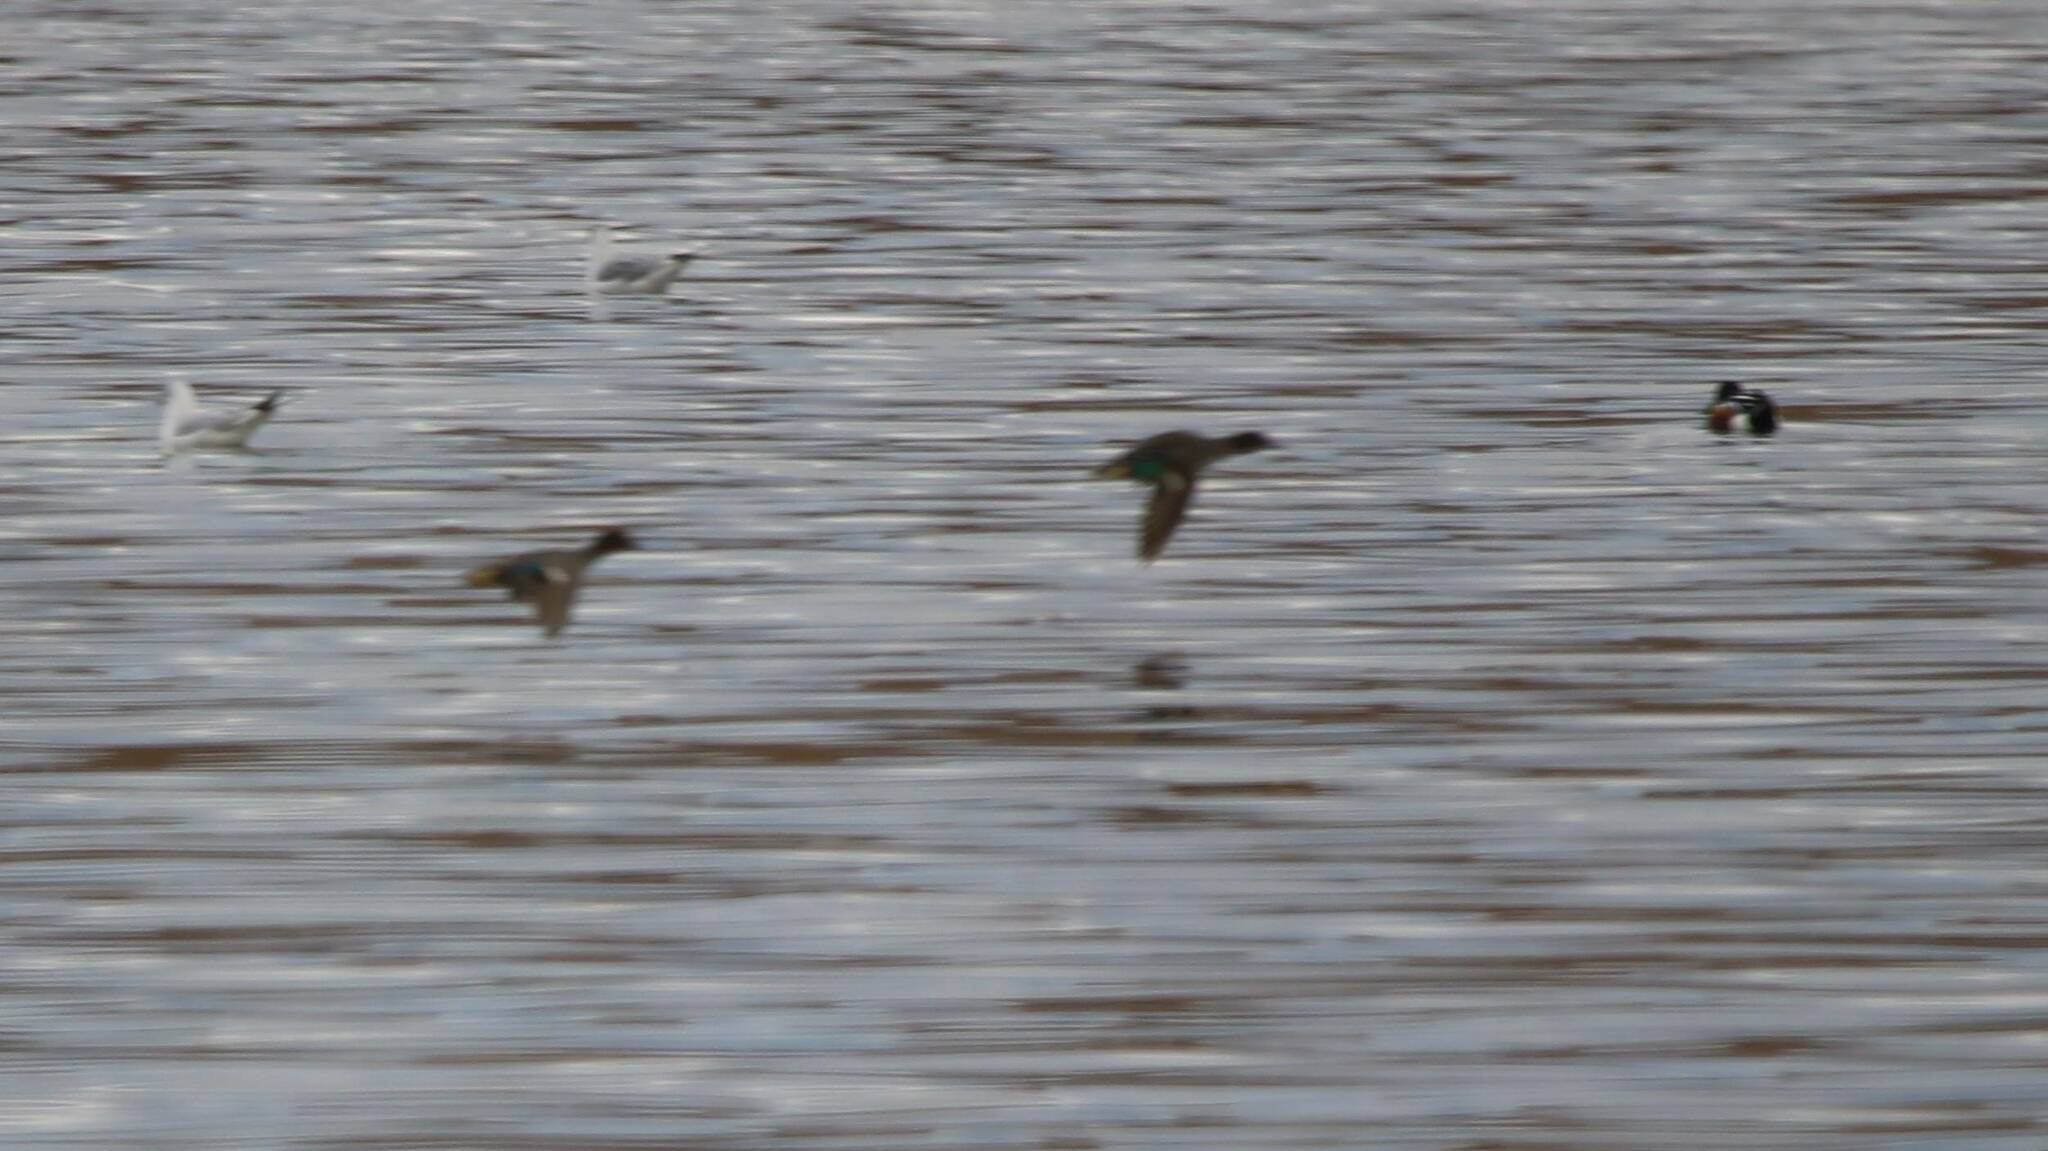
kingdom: Animalia
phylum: Chordata
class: Aves
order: Anseriformes
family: Anatidae
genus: Anas
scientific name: Anas crecca
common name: Eurasian teal
